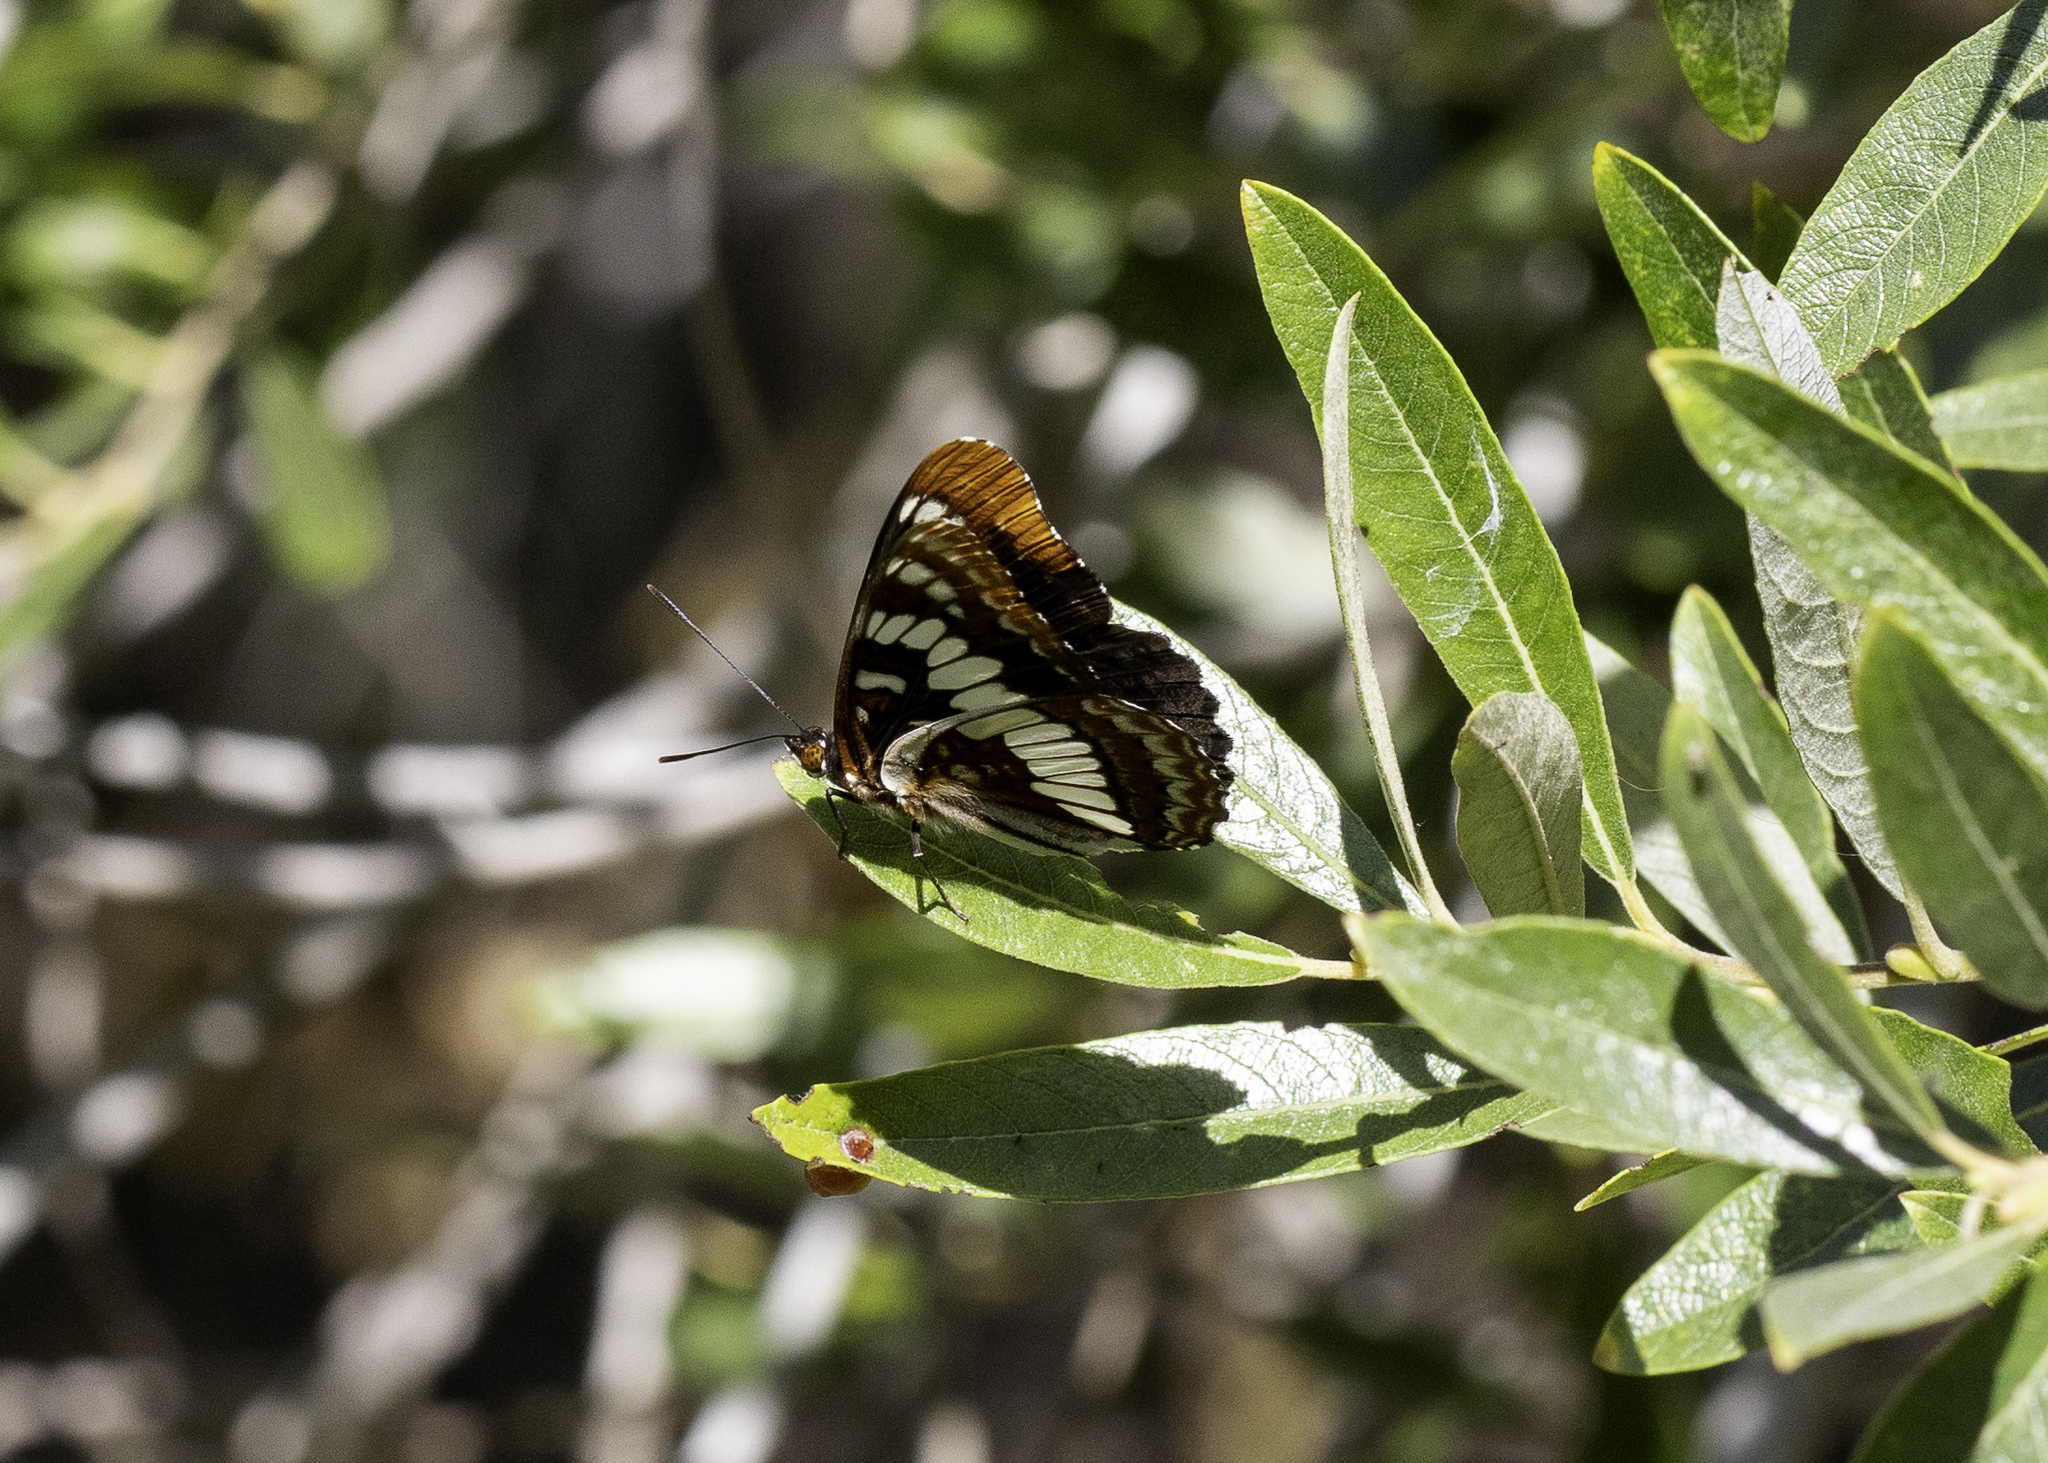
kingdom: Animalia
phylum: Arthropoda
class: Insecta
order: Lepidoptera
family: Nymphalidae
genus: Limenitis
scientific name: Limenitis lorquini
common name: Lorquin's admiral
